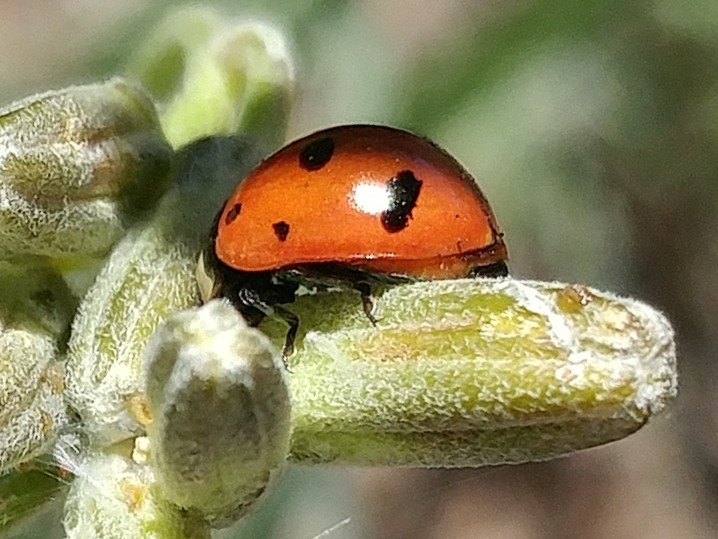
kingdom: Animalia
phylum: Arthropoda
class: Insecta
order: Coleoptera
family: Coccinellidae
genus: Coccinella
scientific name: Coccinella novemnotata
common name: Nine-spotted lady beetle
